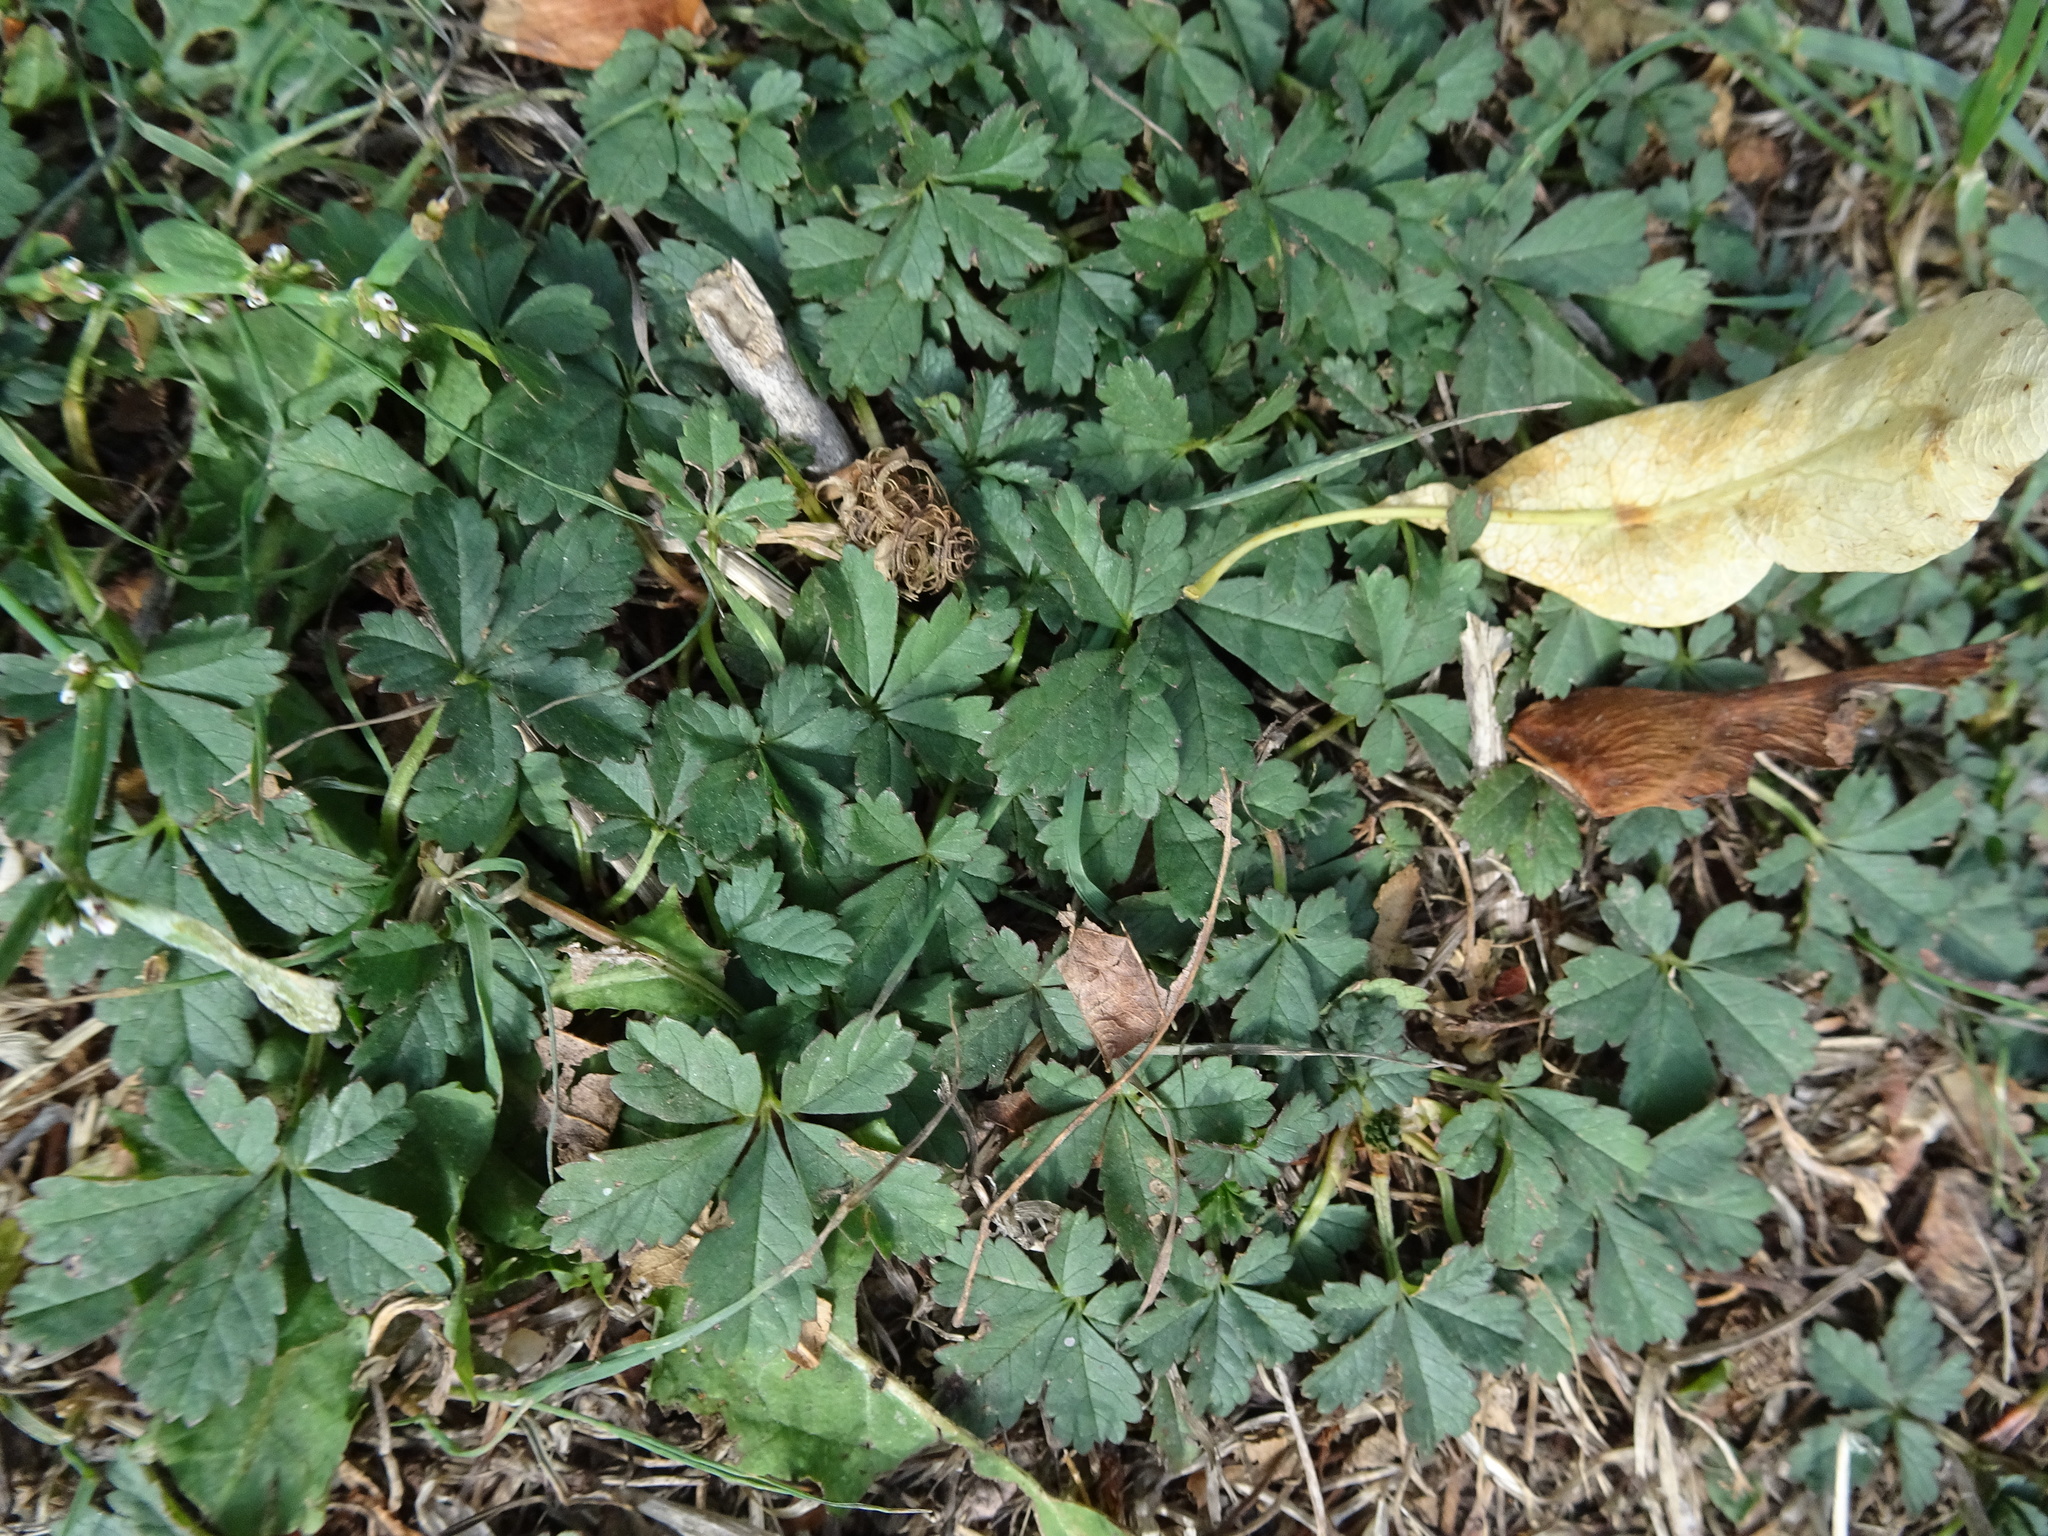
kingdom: Plantae
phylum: Tracheophyta
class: Magnoliopsida
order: Rosales
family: Rosaceae
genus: Potentilla
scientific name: Potentilla reptans
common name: Creeping cinquefoil
